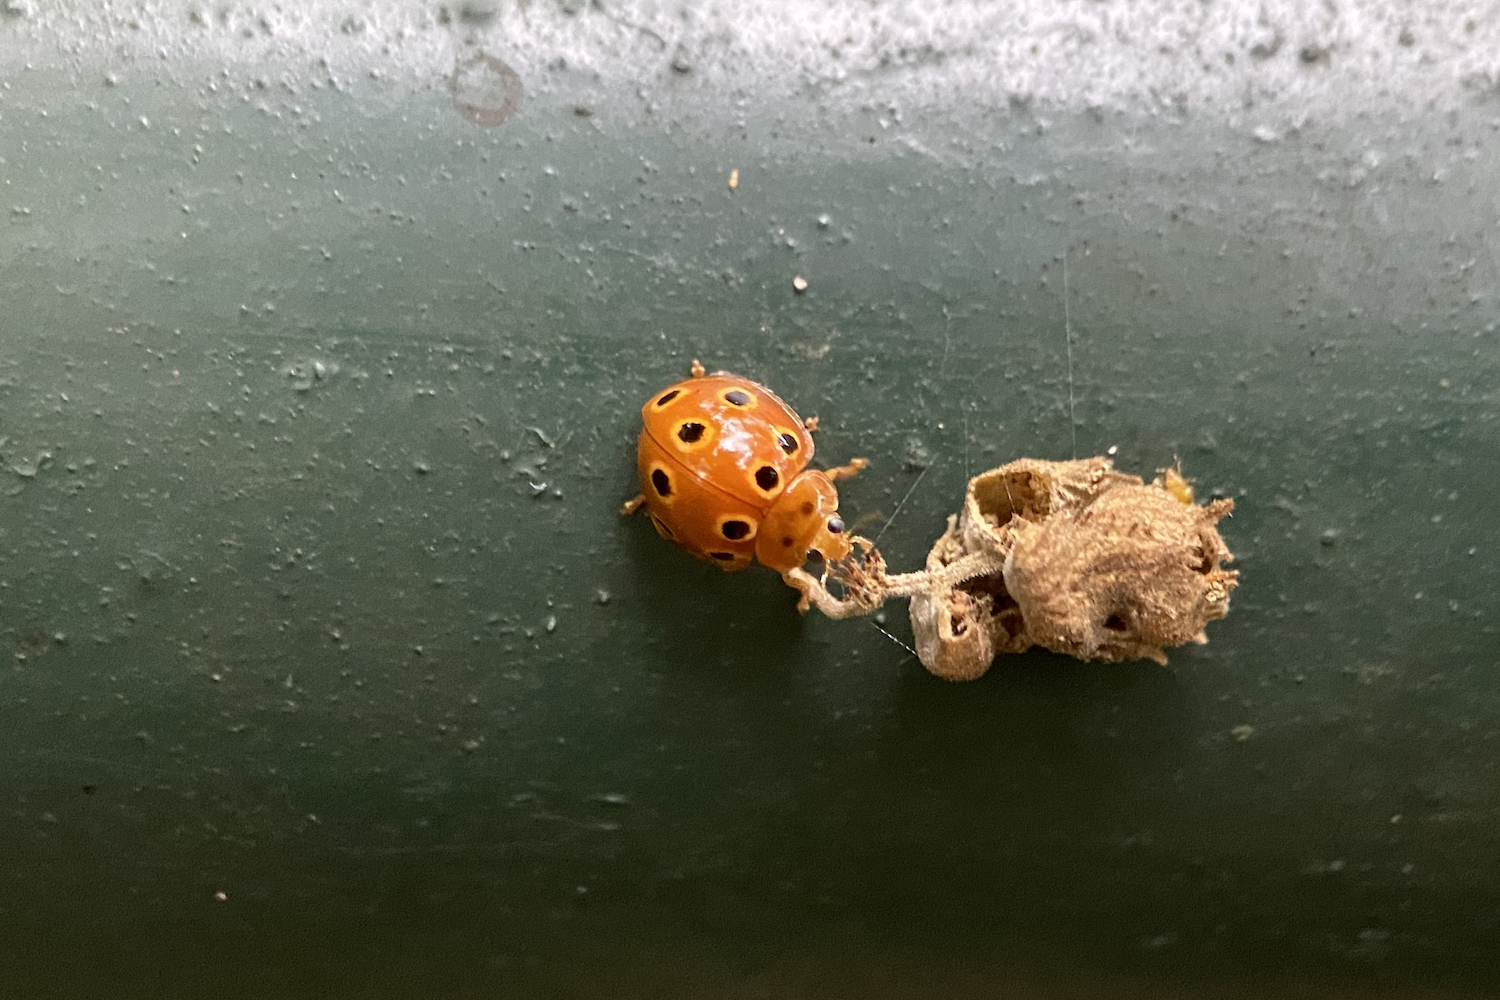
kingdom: Animalia
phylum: Arthropoda
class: Insecta
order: Coleoptera
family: Coccinellidae
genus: Microcaria
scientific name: Microcaria
